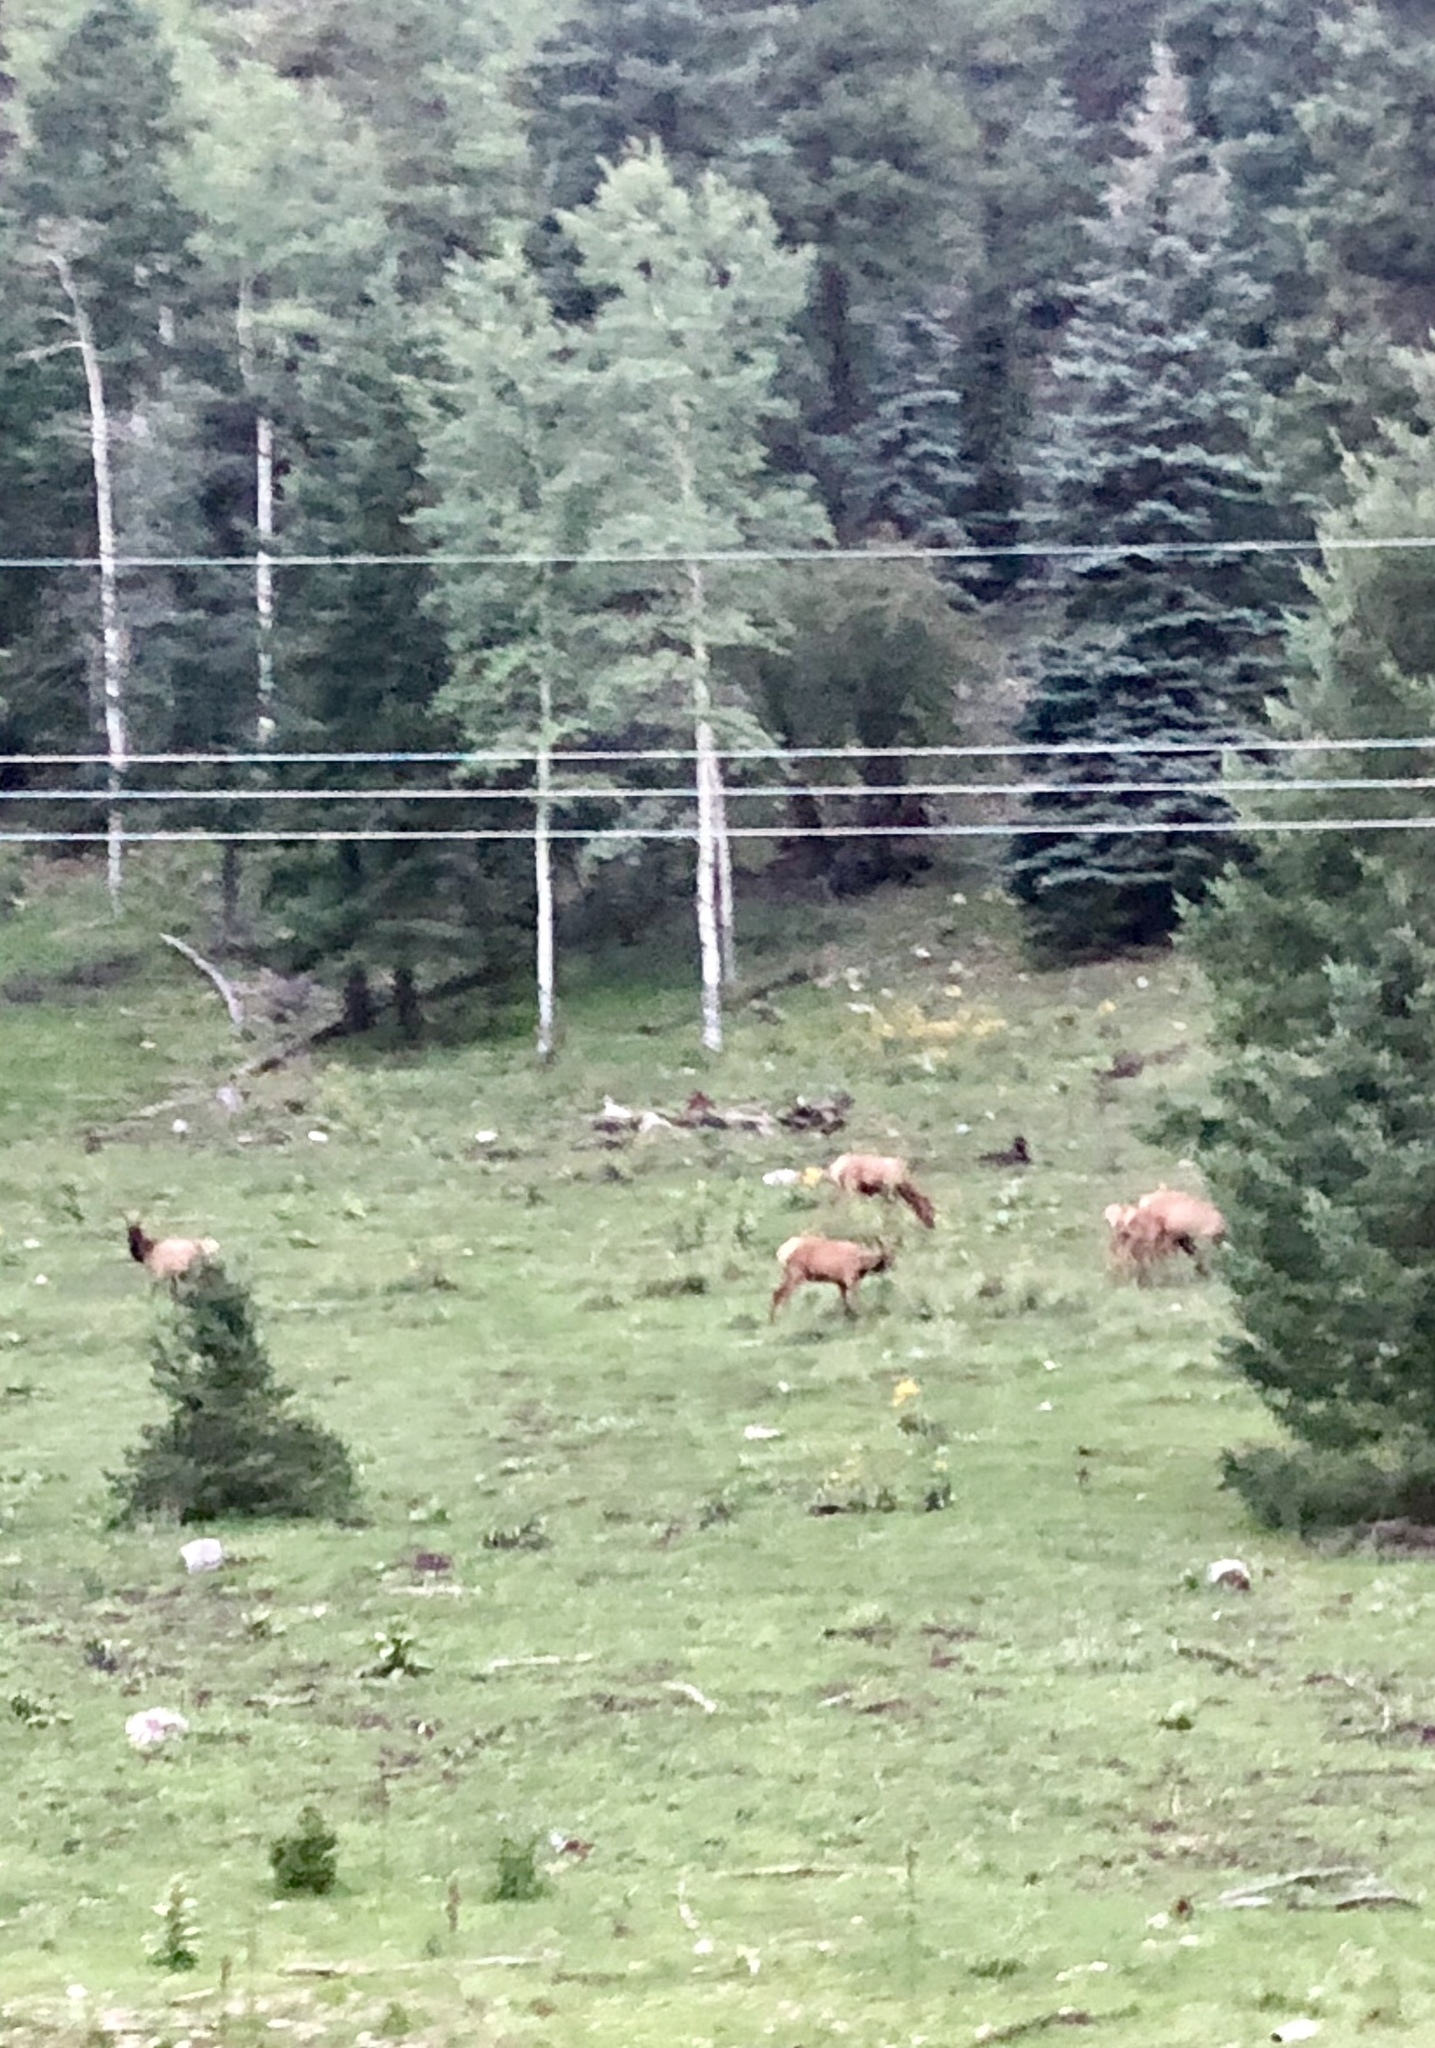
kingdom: Animalia
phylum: Chordata
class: Mammalia
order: Artiodactyla
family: Cervidae
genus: Cervus
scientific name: Cervus elaphus
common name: Red deer
